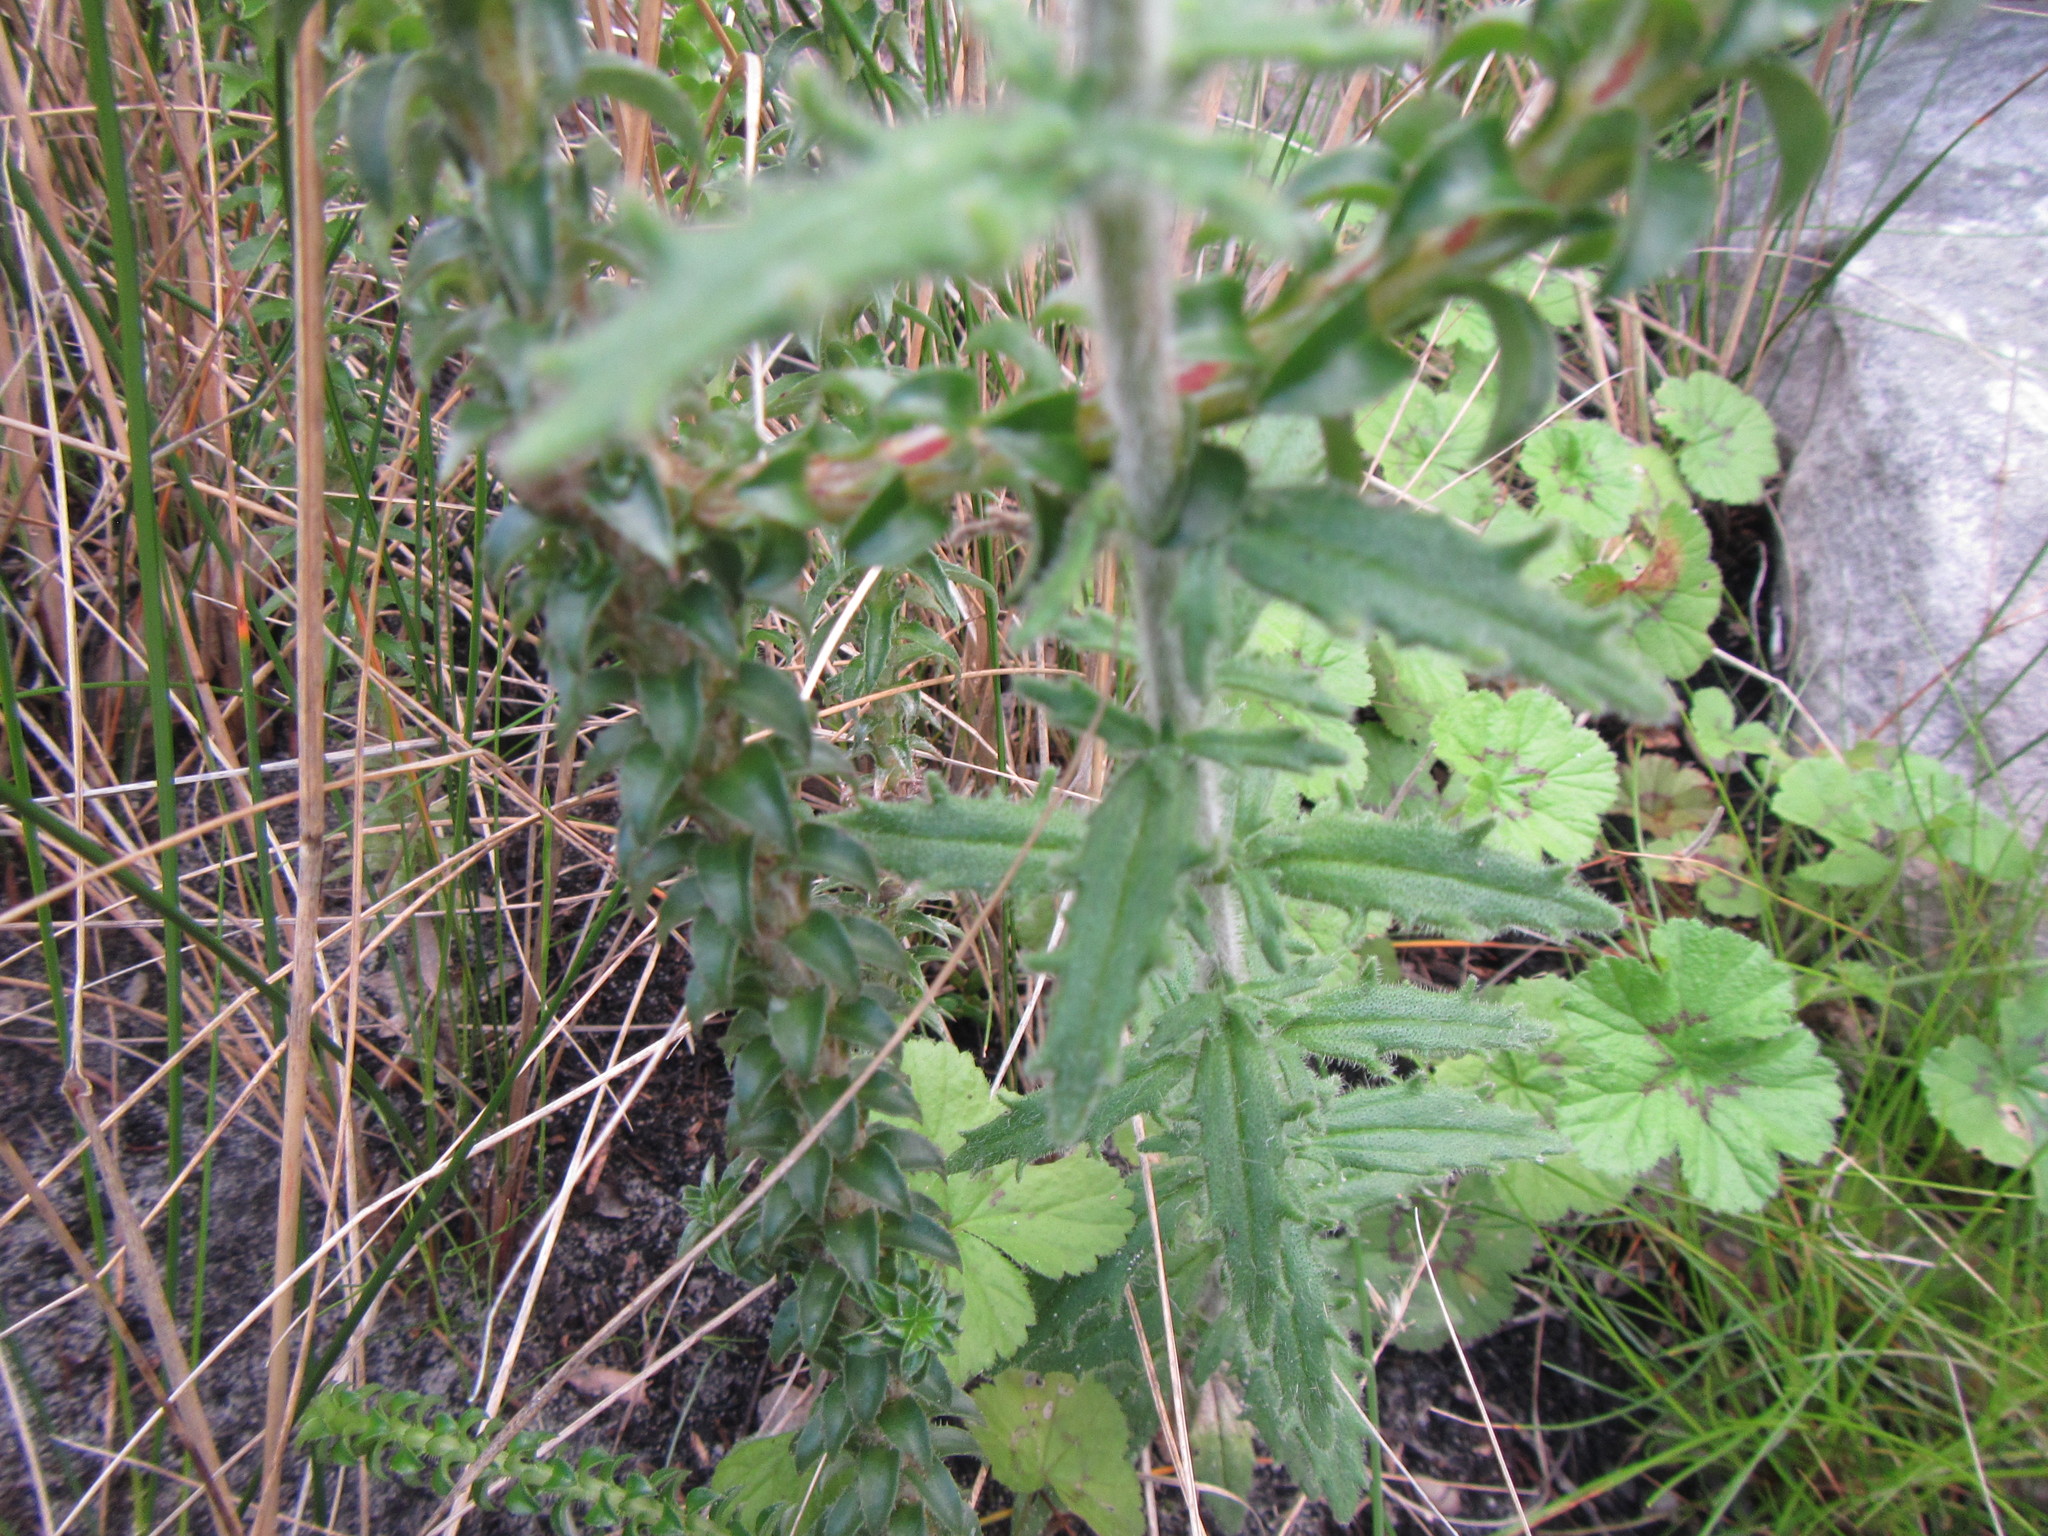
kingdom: Plantae
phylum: Tracheophyta
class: Magnoliopsida
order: Lamiales
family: Scrophulariaceae
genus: Zaluzianskya
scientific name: Zaluzianskya capensis
